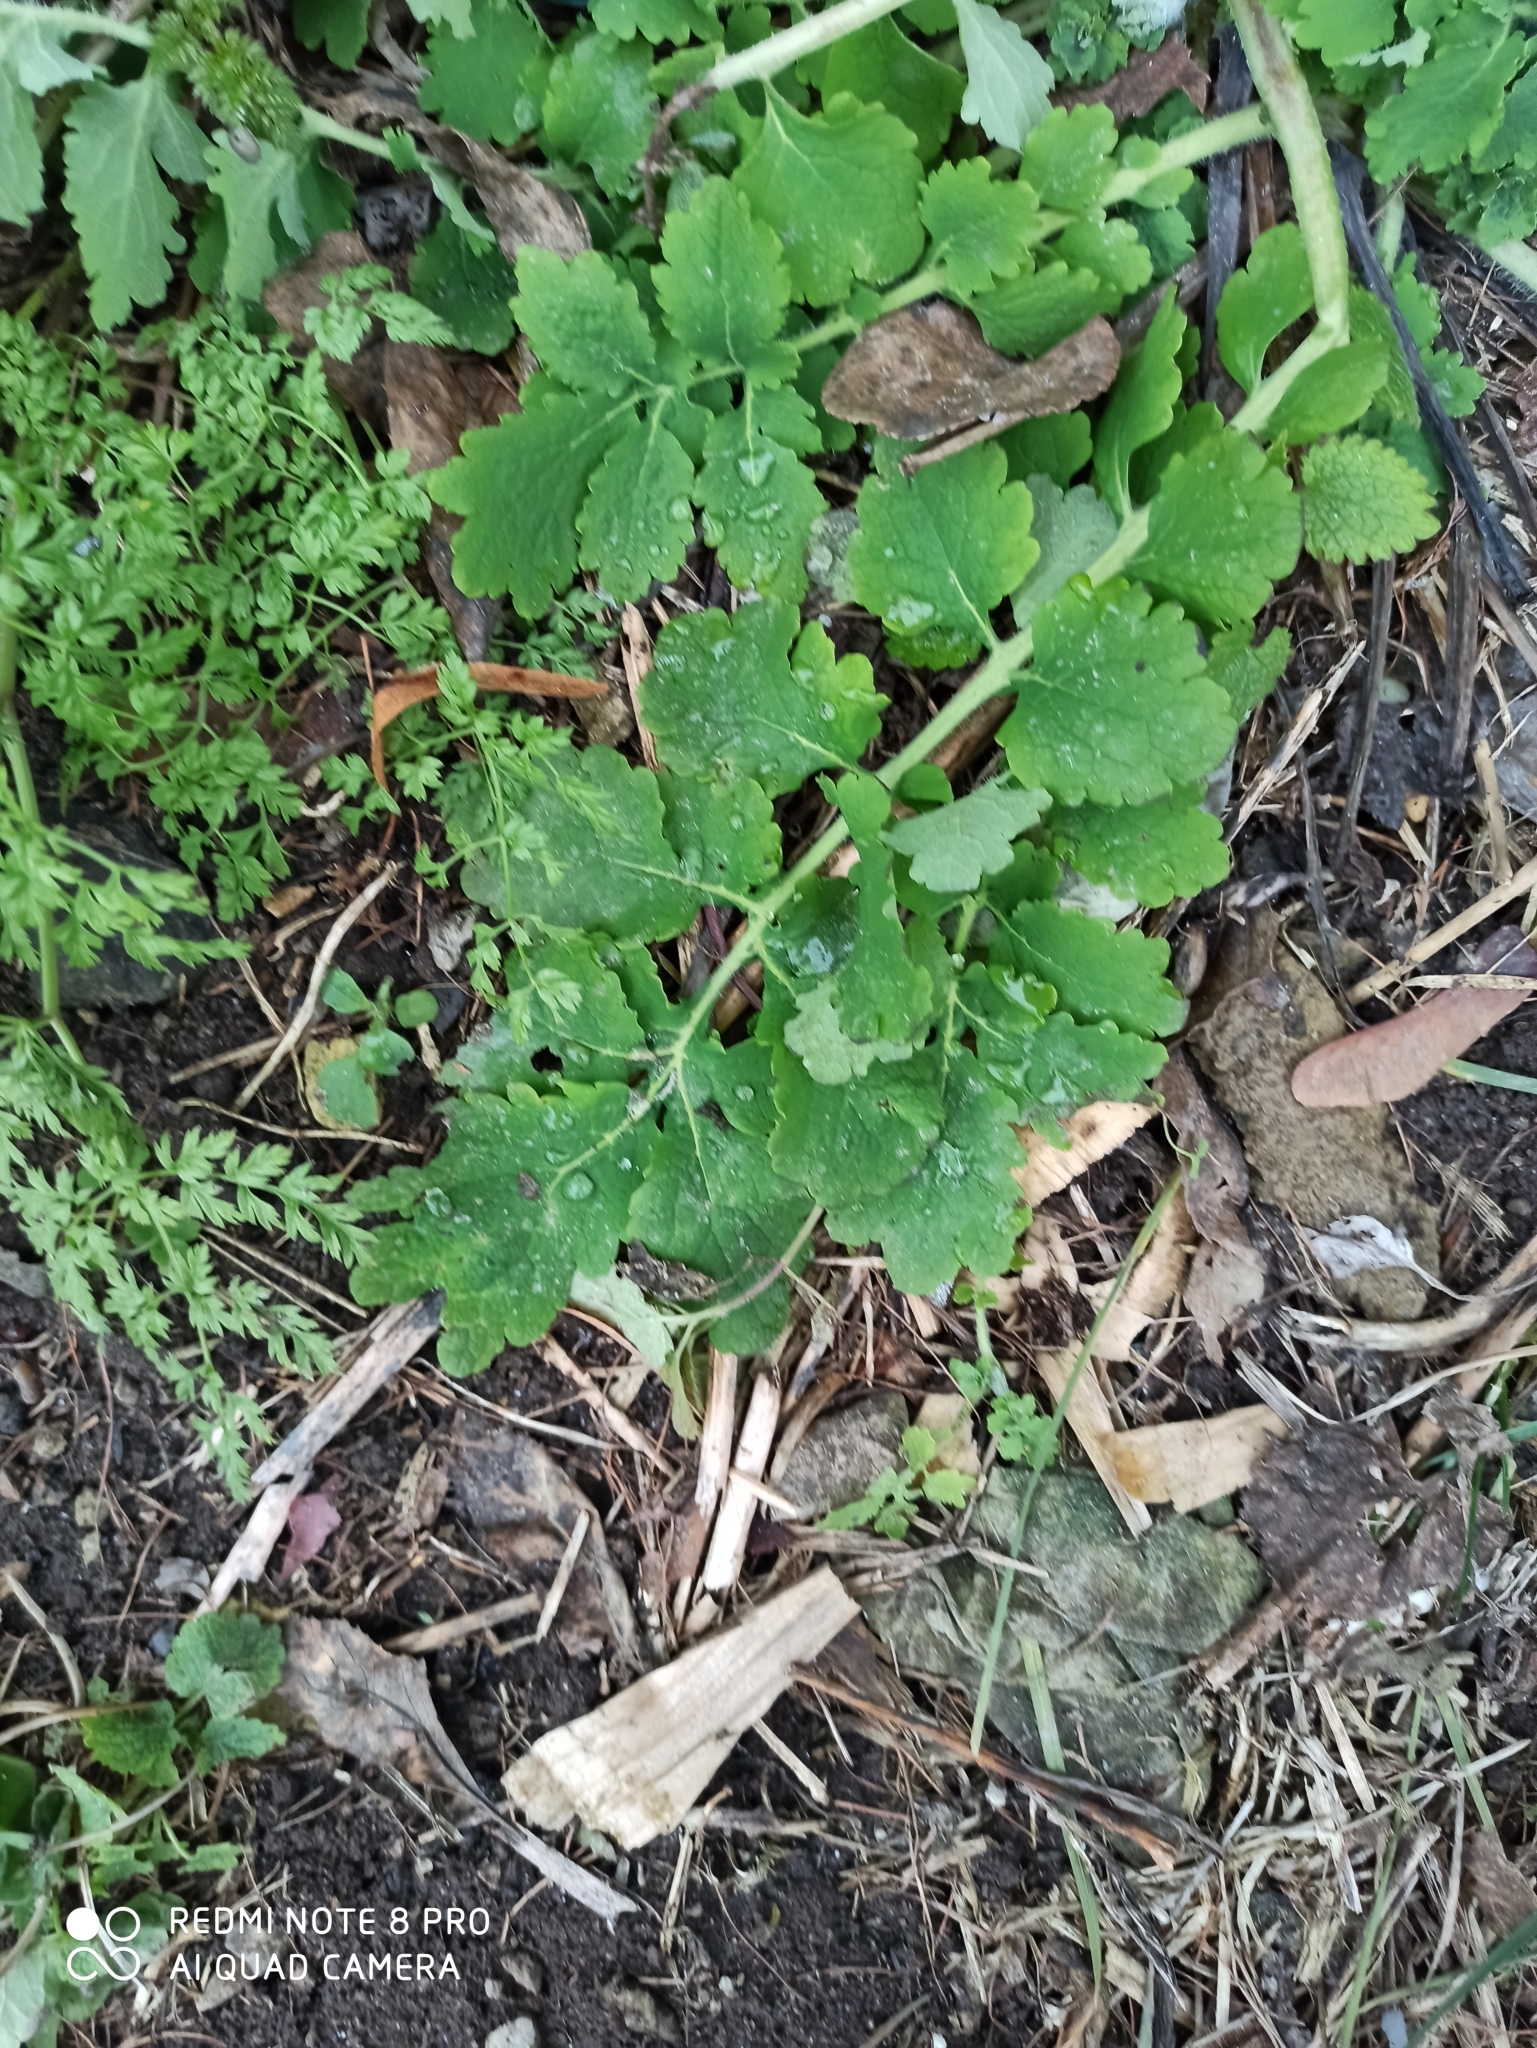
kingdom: Plantae
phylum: Tracheophyta
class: Magnoliopsida
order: Ranunculales
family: Papaveraceae
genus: Chelidonium
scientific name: Chelidonium majus
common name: Greater celandine
